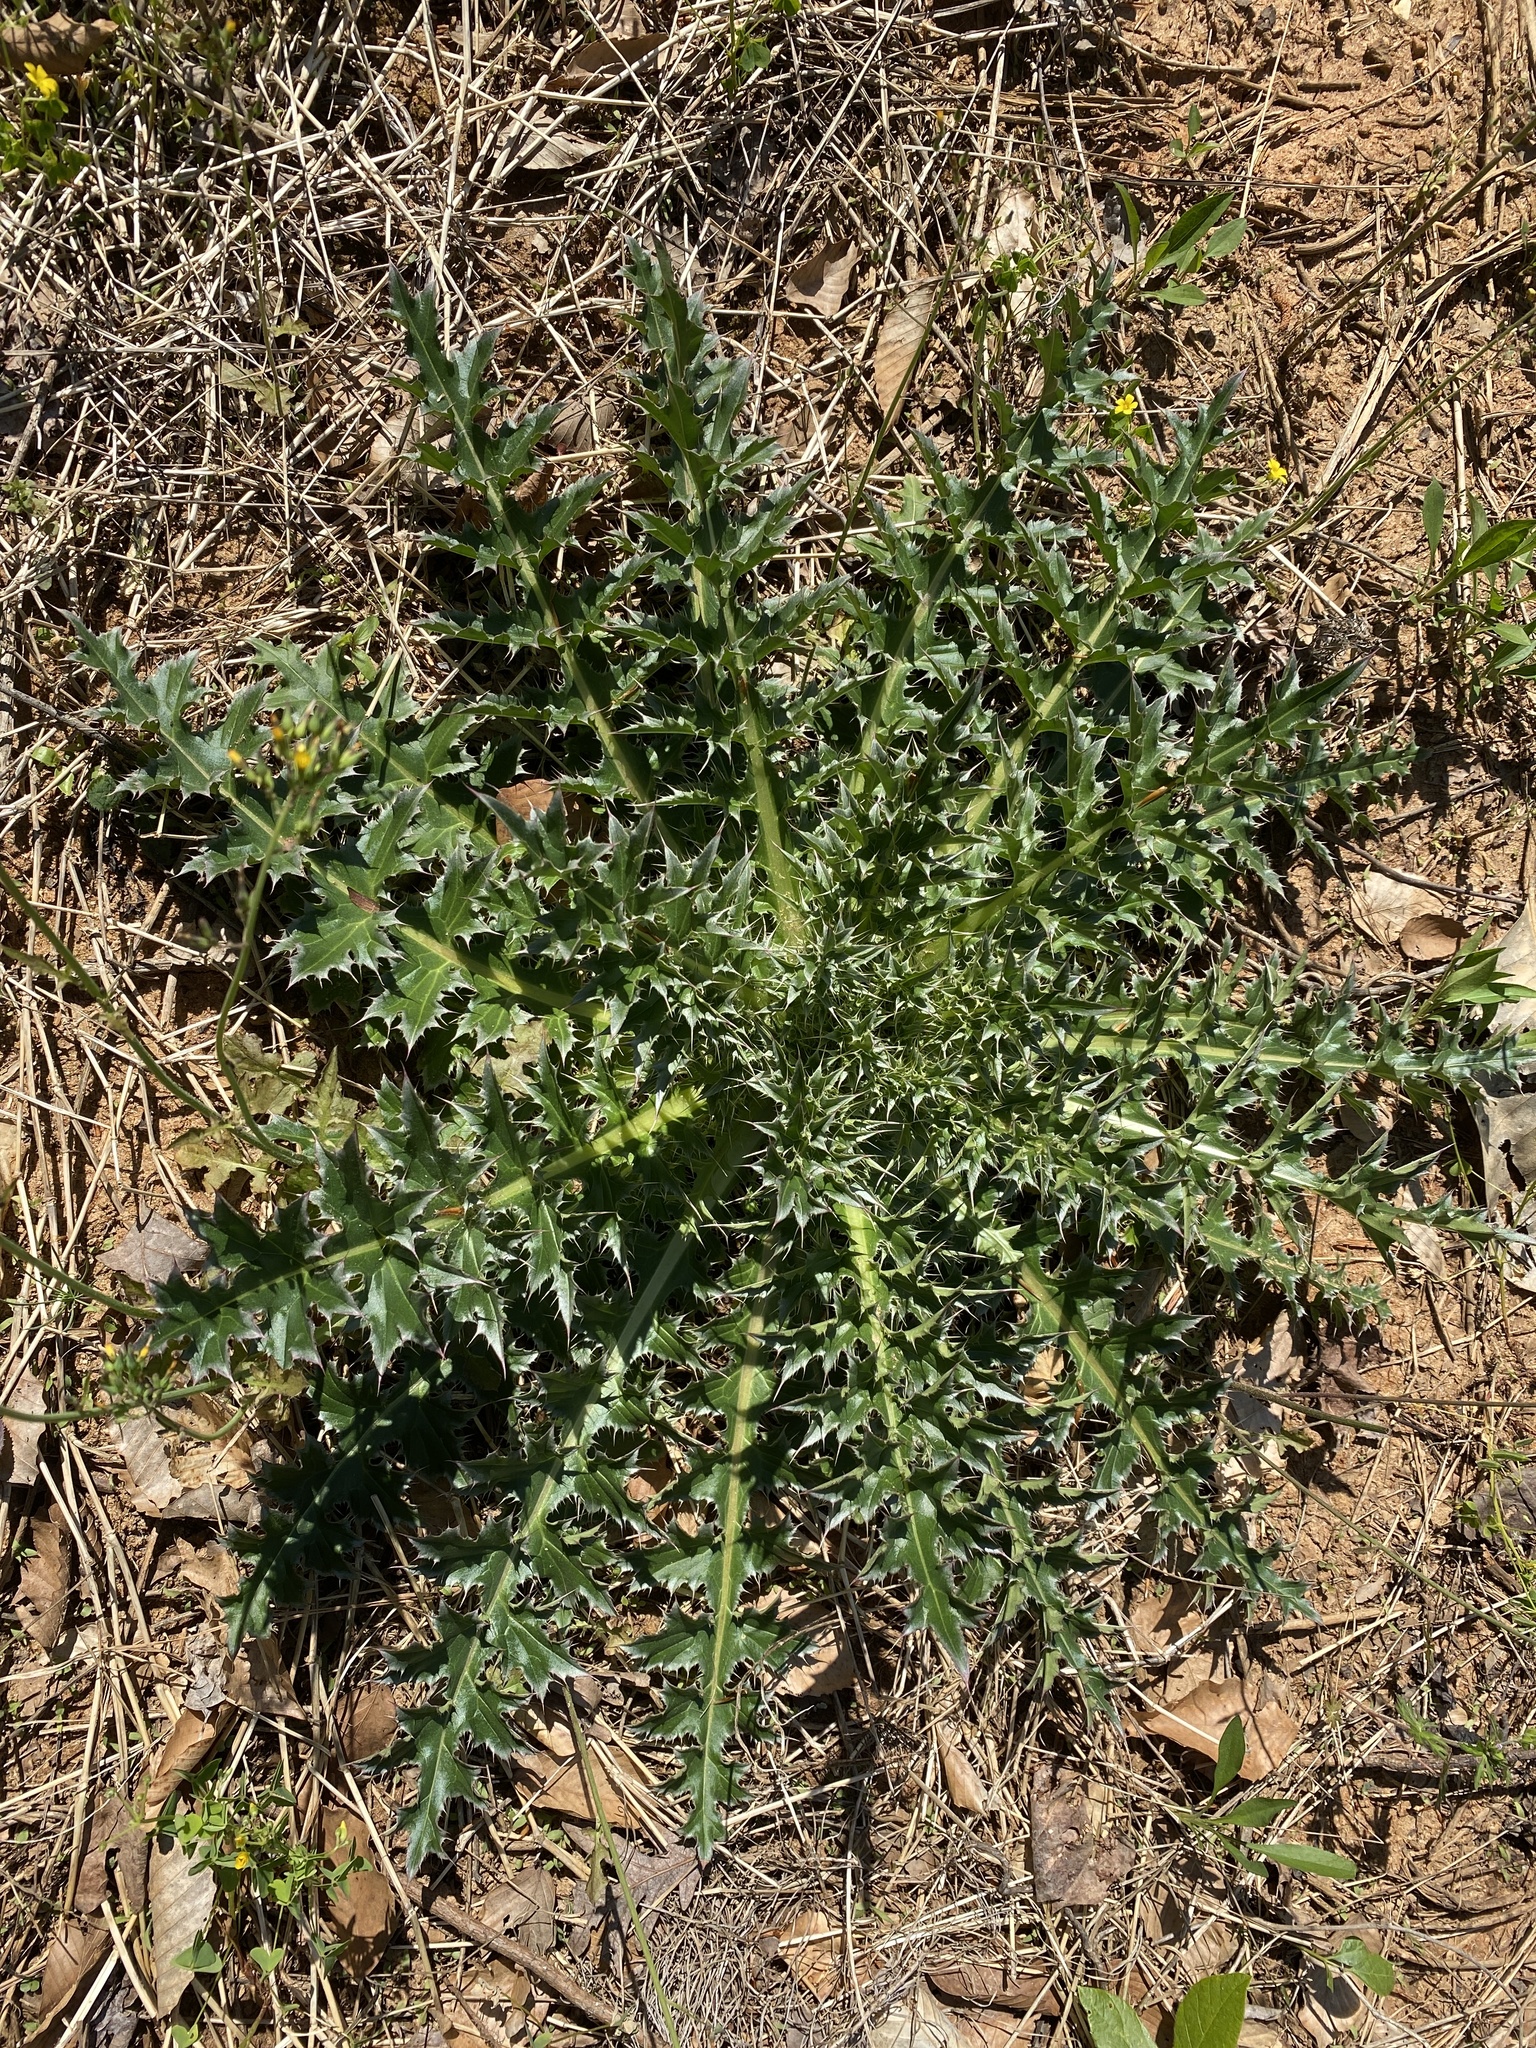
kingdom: Plantae
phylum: Tracheophyta
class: Magnoliopsida
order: Asterales
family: Asteraceae
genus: Cirsium
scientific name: Cirsium horridulum
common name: Bristly thistle
